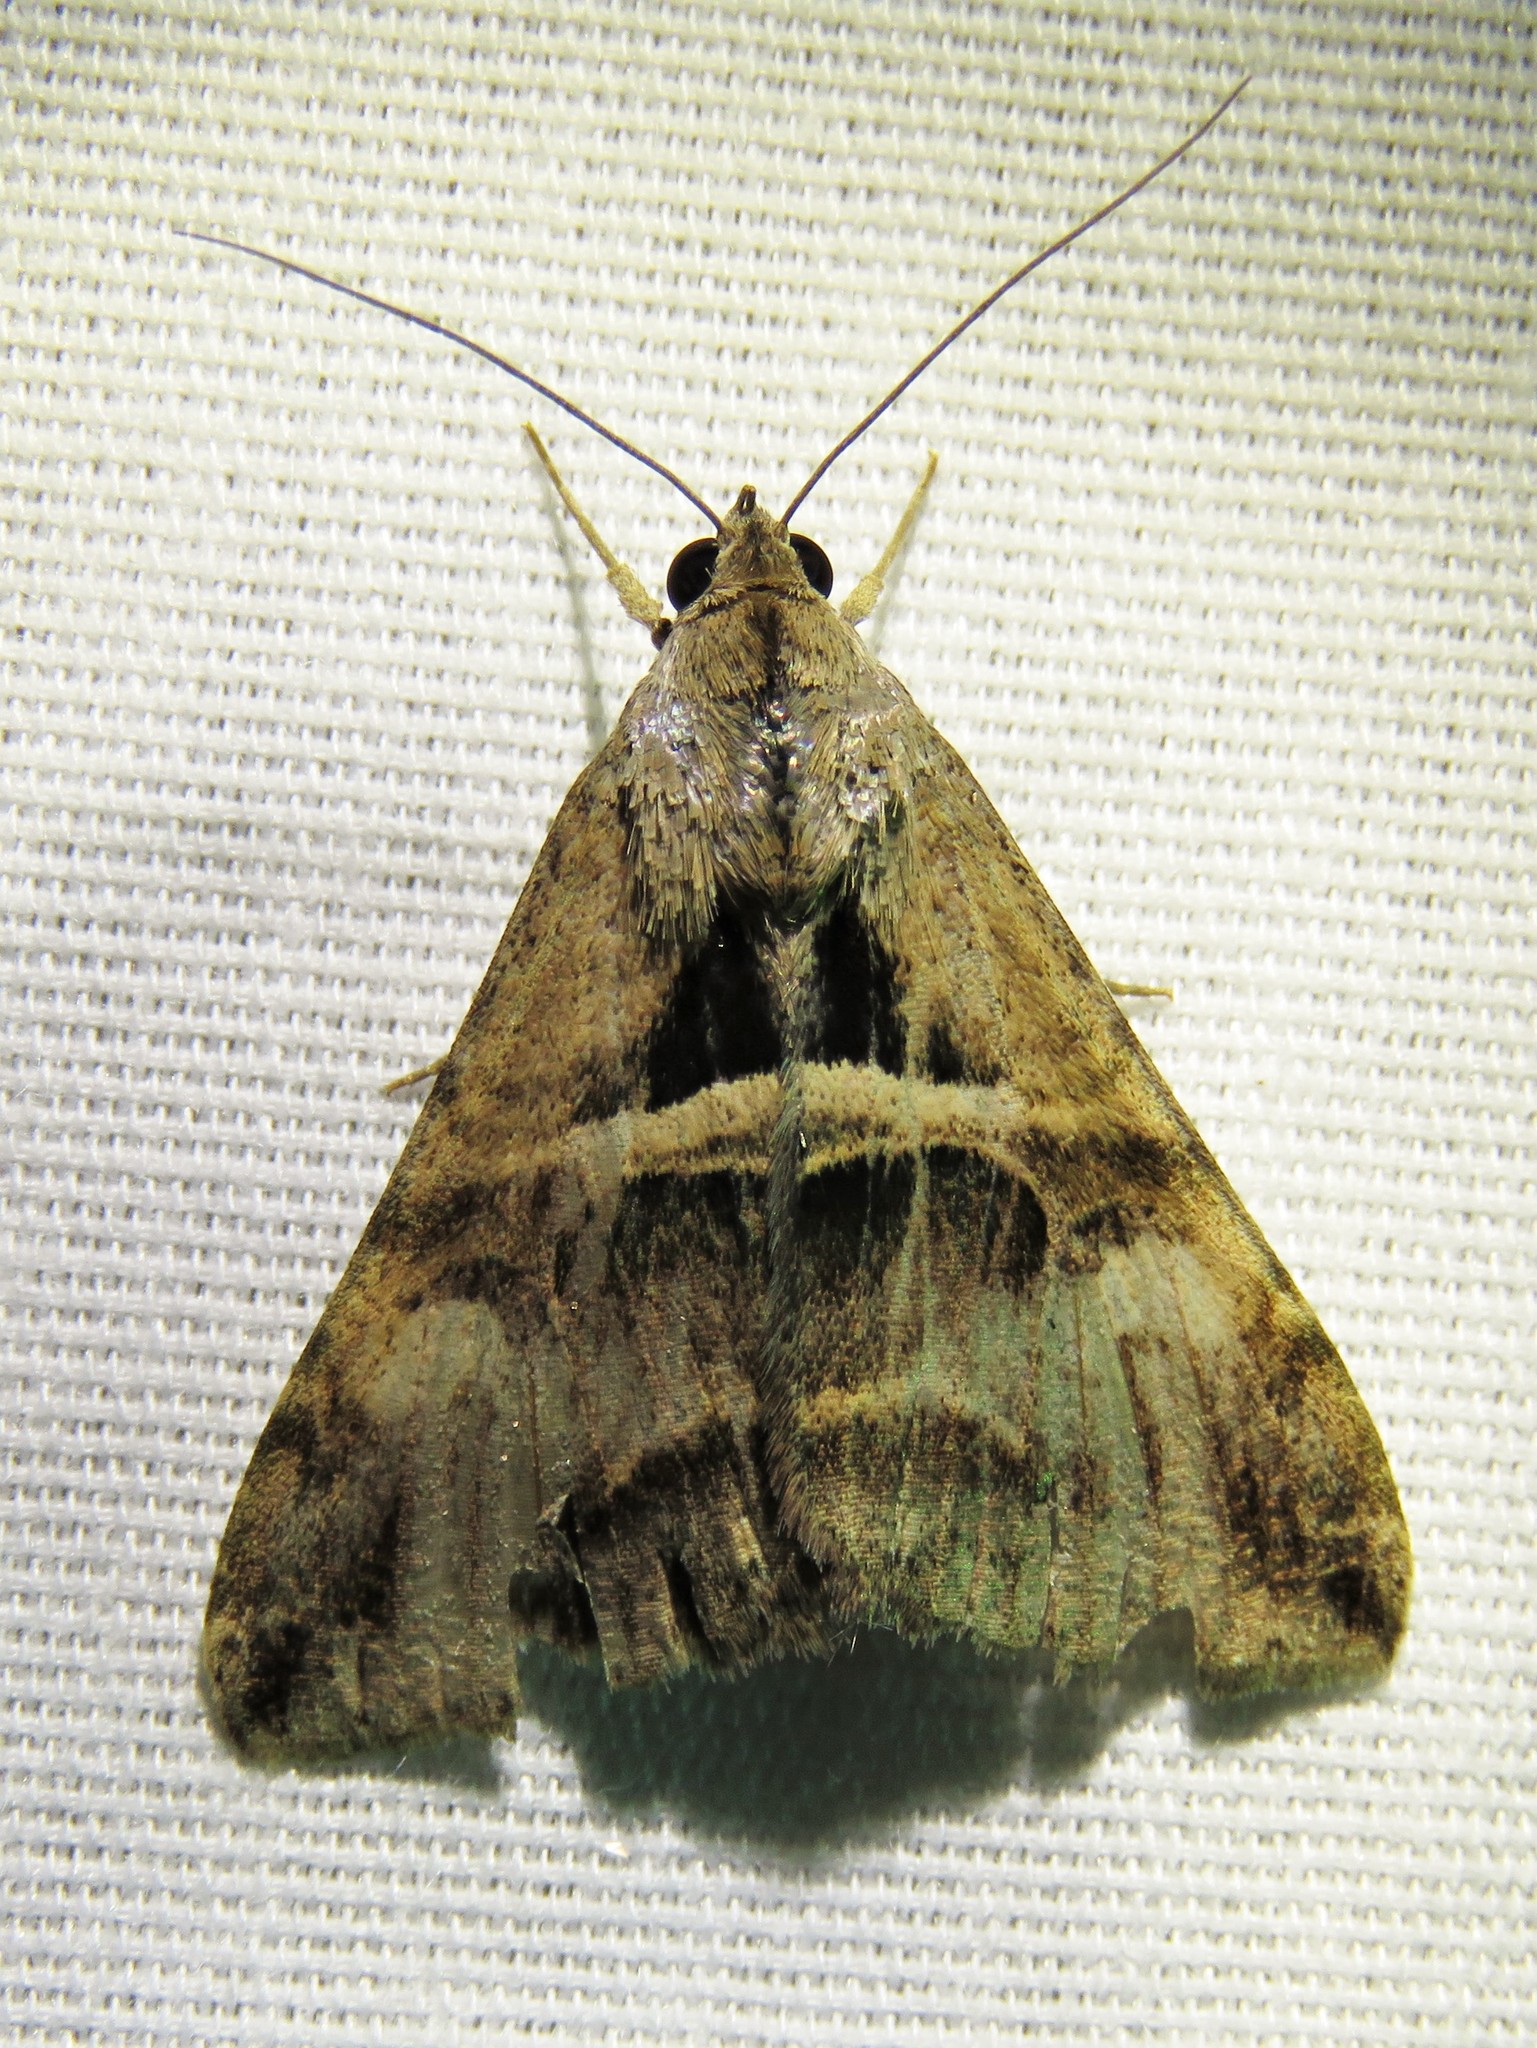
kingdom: Animalia
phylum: Arthropoda
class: Insecta
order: Lepidoptera
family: Erebidae
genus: Melipotis
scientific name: Melipotis cellaris
